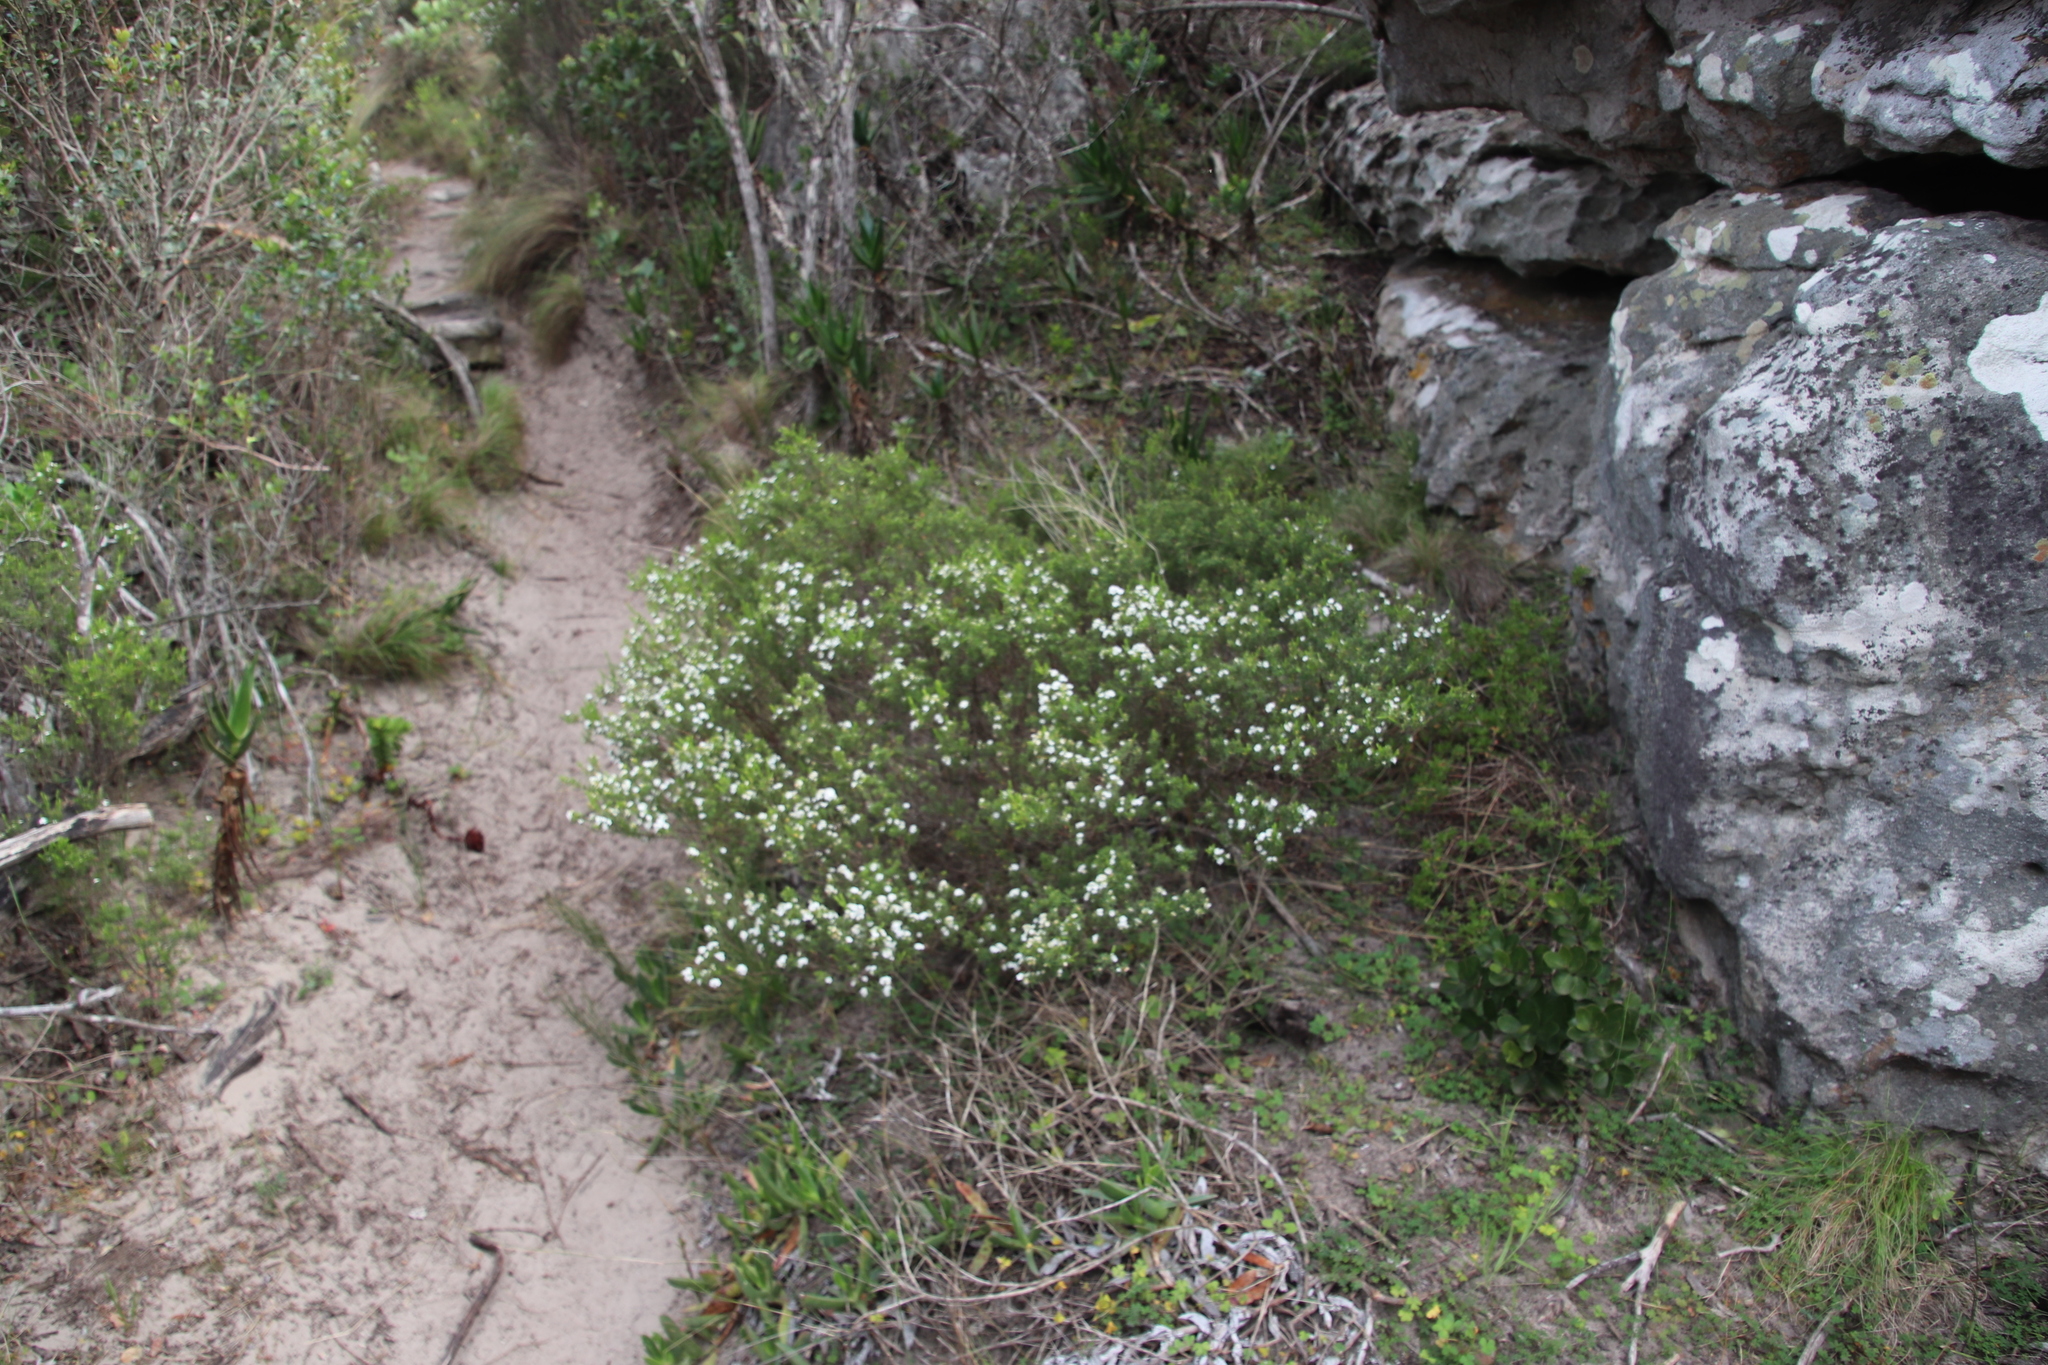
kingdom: Plantae
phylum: Tracheophyta
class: Magnoliopsida
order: Sapindales
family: Rutaceae
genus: Coleonema
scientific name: Coleonema album
